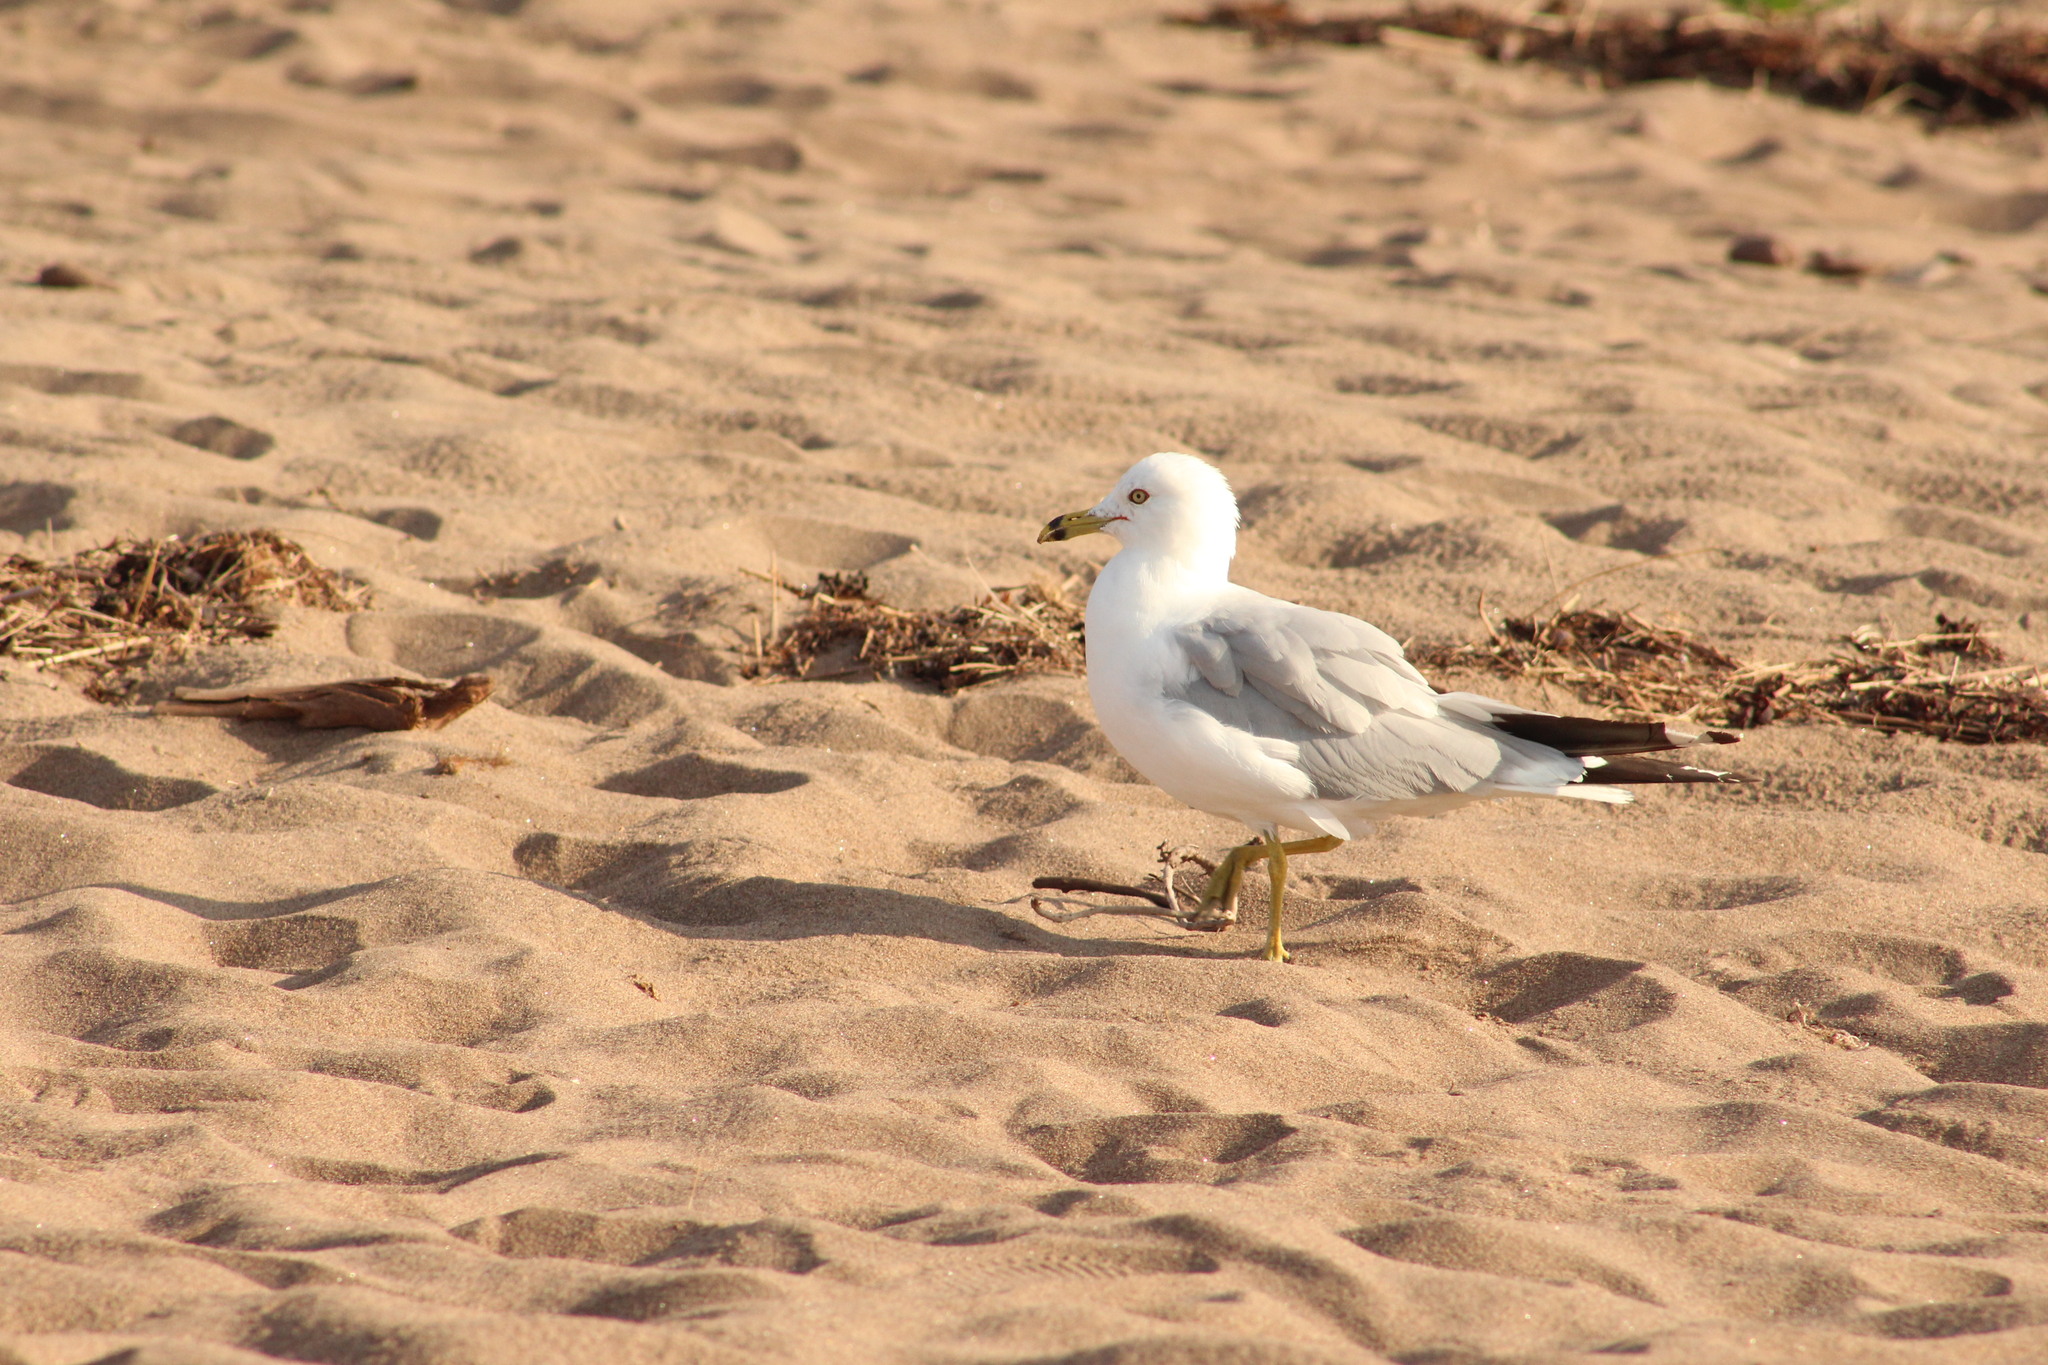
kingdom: Animalia
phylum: Chordata
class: Aves
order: Charadriiformes
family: Laridae
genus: Larus
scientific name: Larus delawarensis
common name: Ring-billed gull
